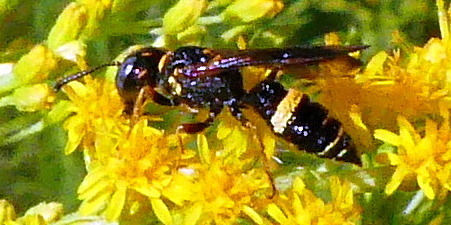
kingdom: Animalia
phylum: Arthropoda
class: Insecta
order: Hymenoptera
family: Crabronidae
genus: Philanthus
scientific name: Philanthus gibbosus
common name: Humped beewolf
